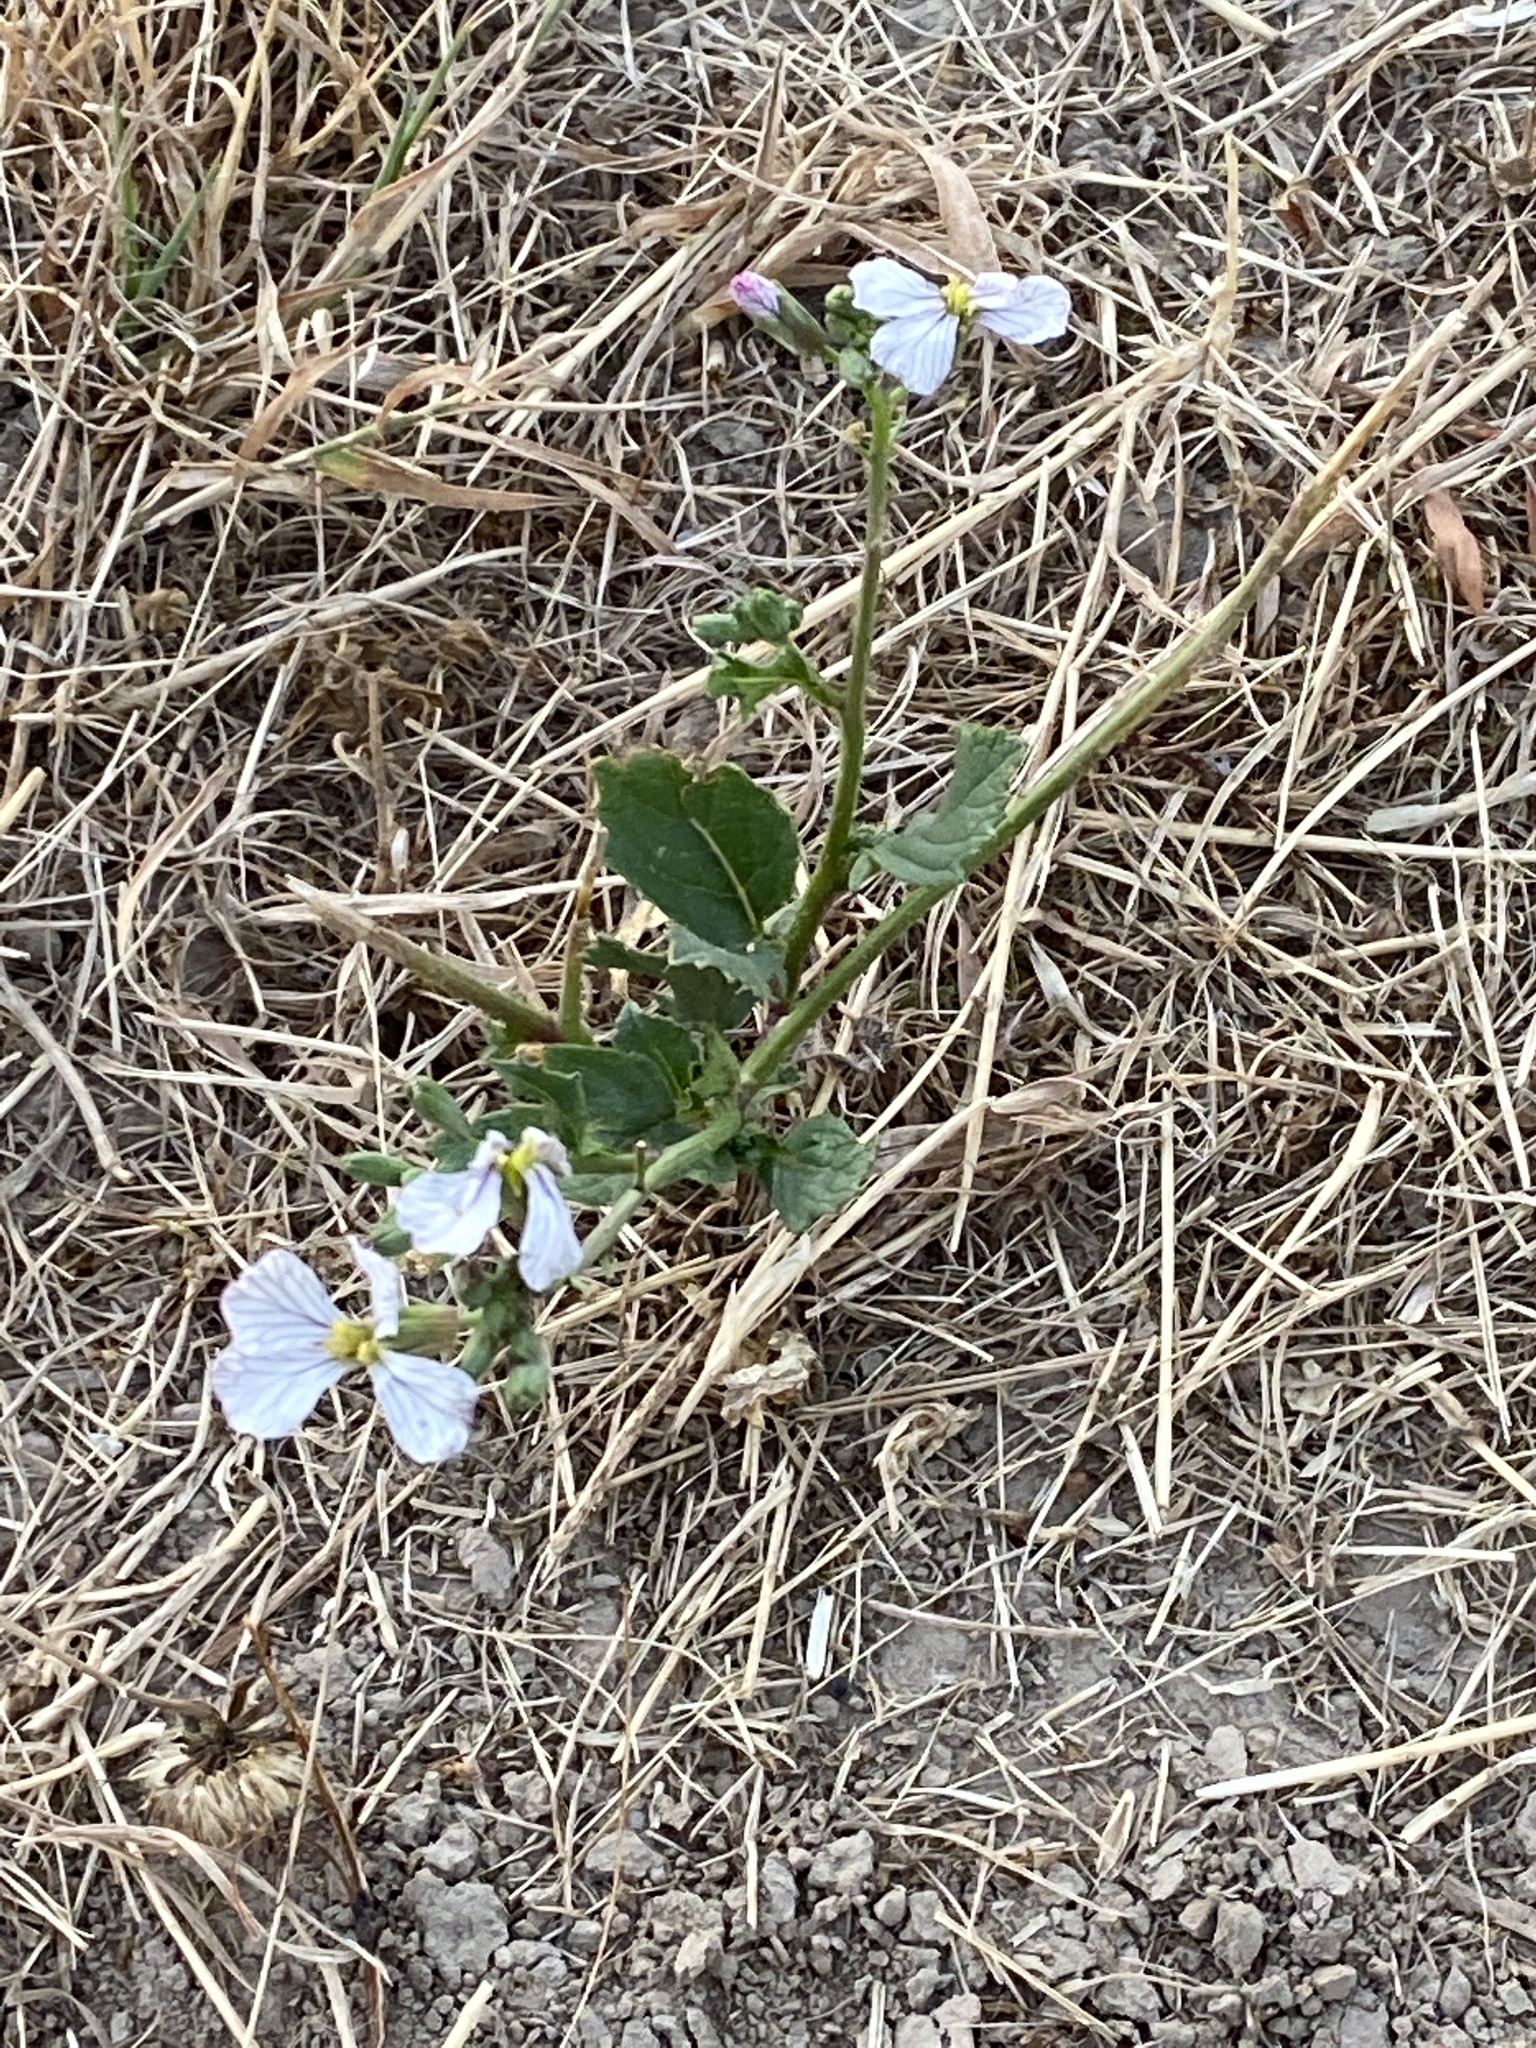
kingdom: Plantae
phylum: Tracheophyta
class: Magnoliopsida
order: Brassicales
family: Brassicaceae
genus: Raphanus
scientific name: Raphanus raphanistrum
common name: Wild radish
